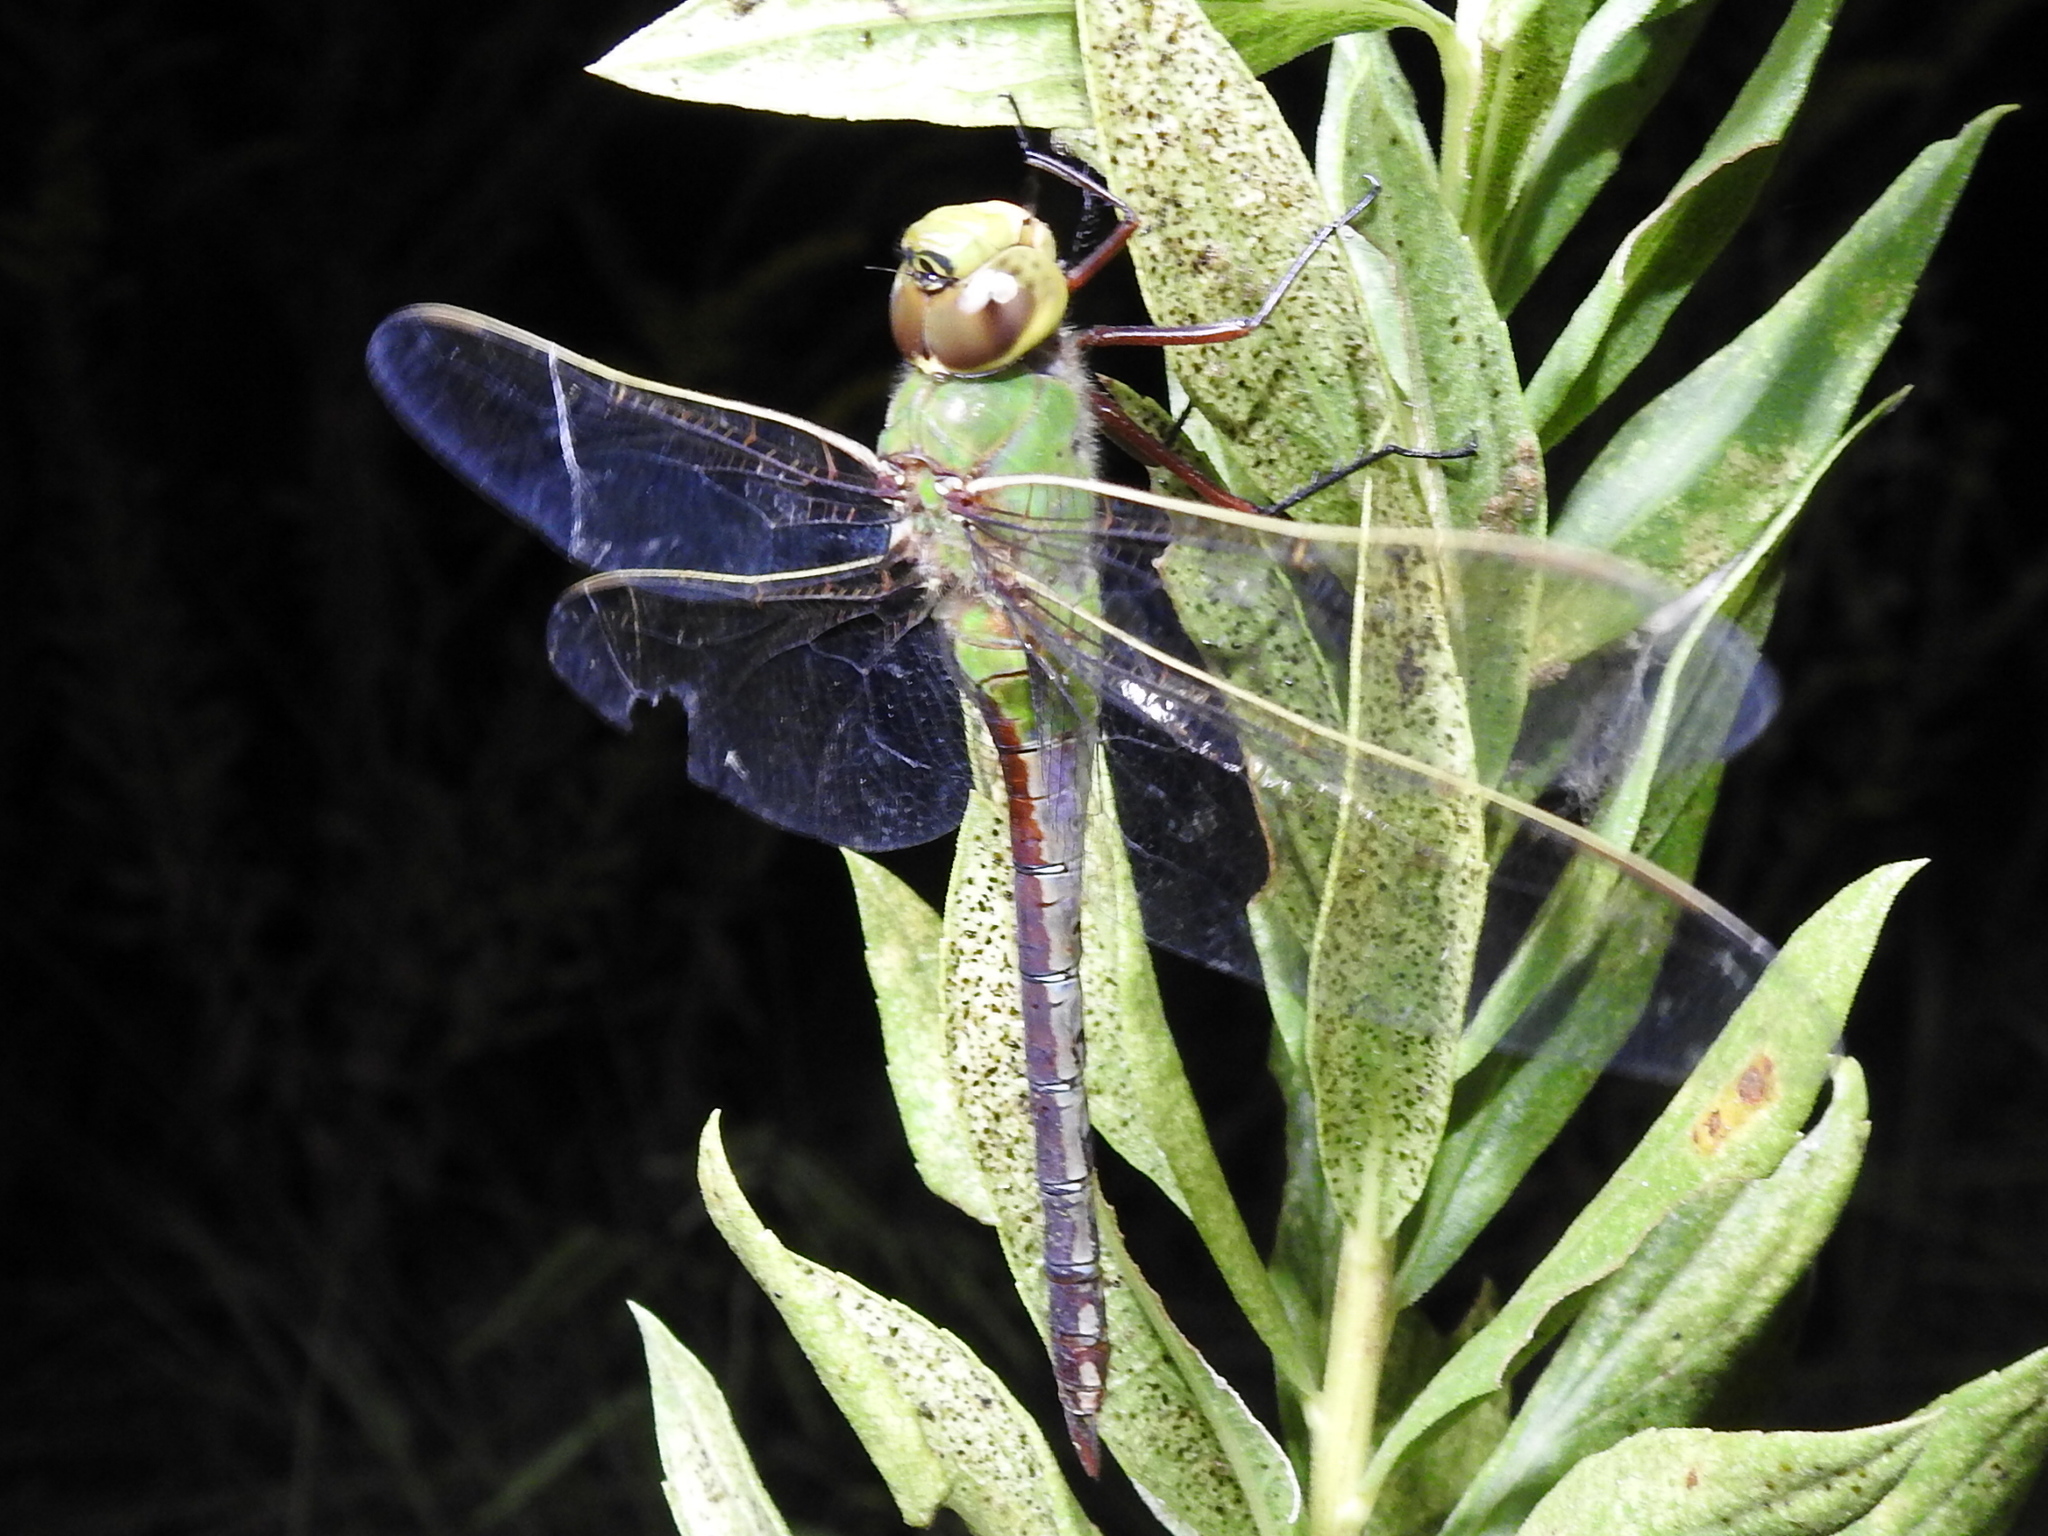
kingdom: Animalia
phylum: Arthropoda
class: Insecta
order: Odonata
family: Aeshnidae
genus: Anax
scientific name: Anax junius
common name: Common green darner
